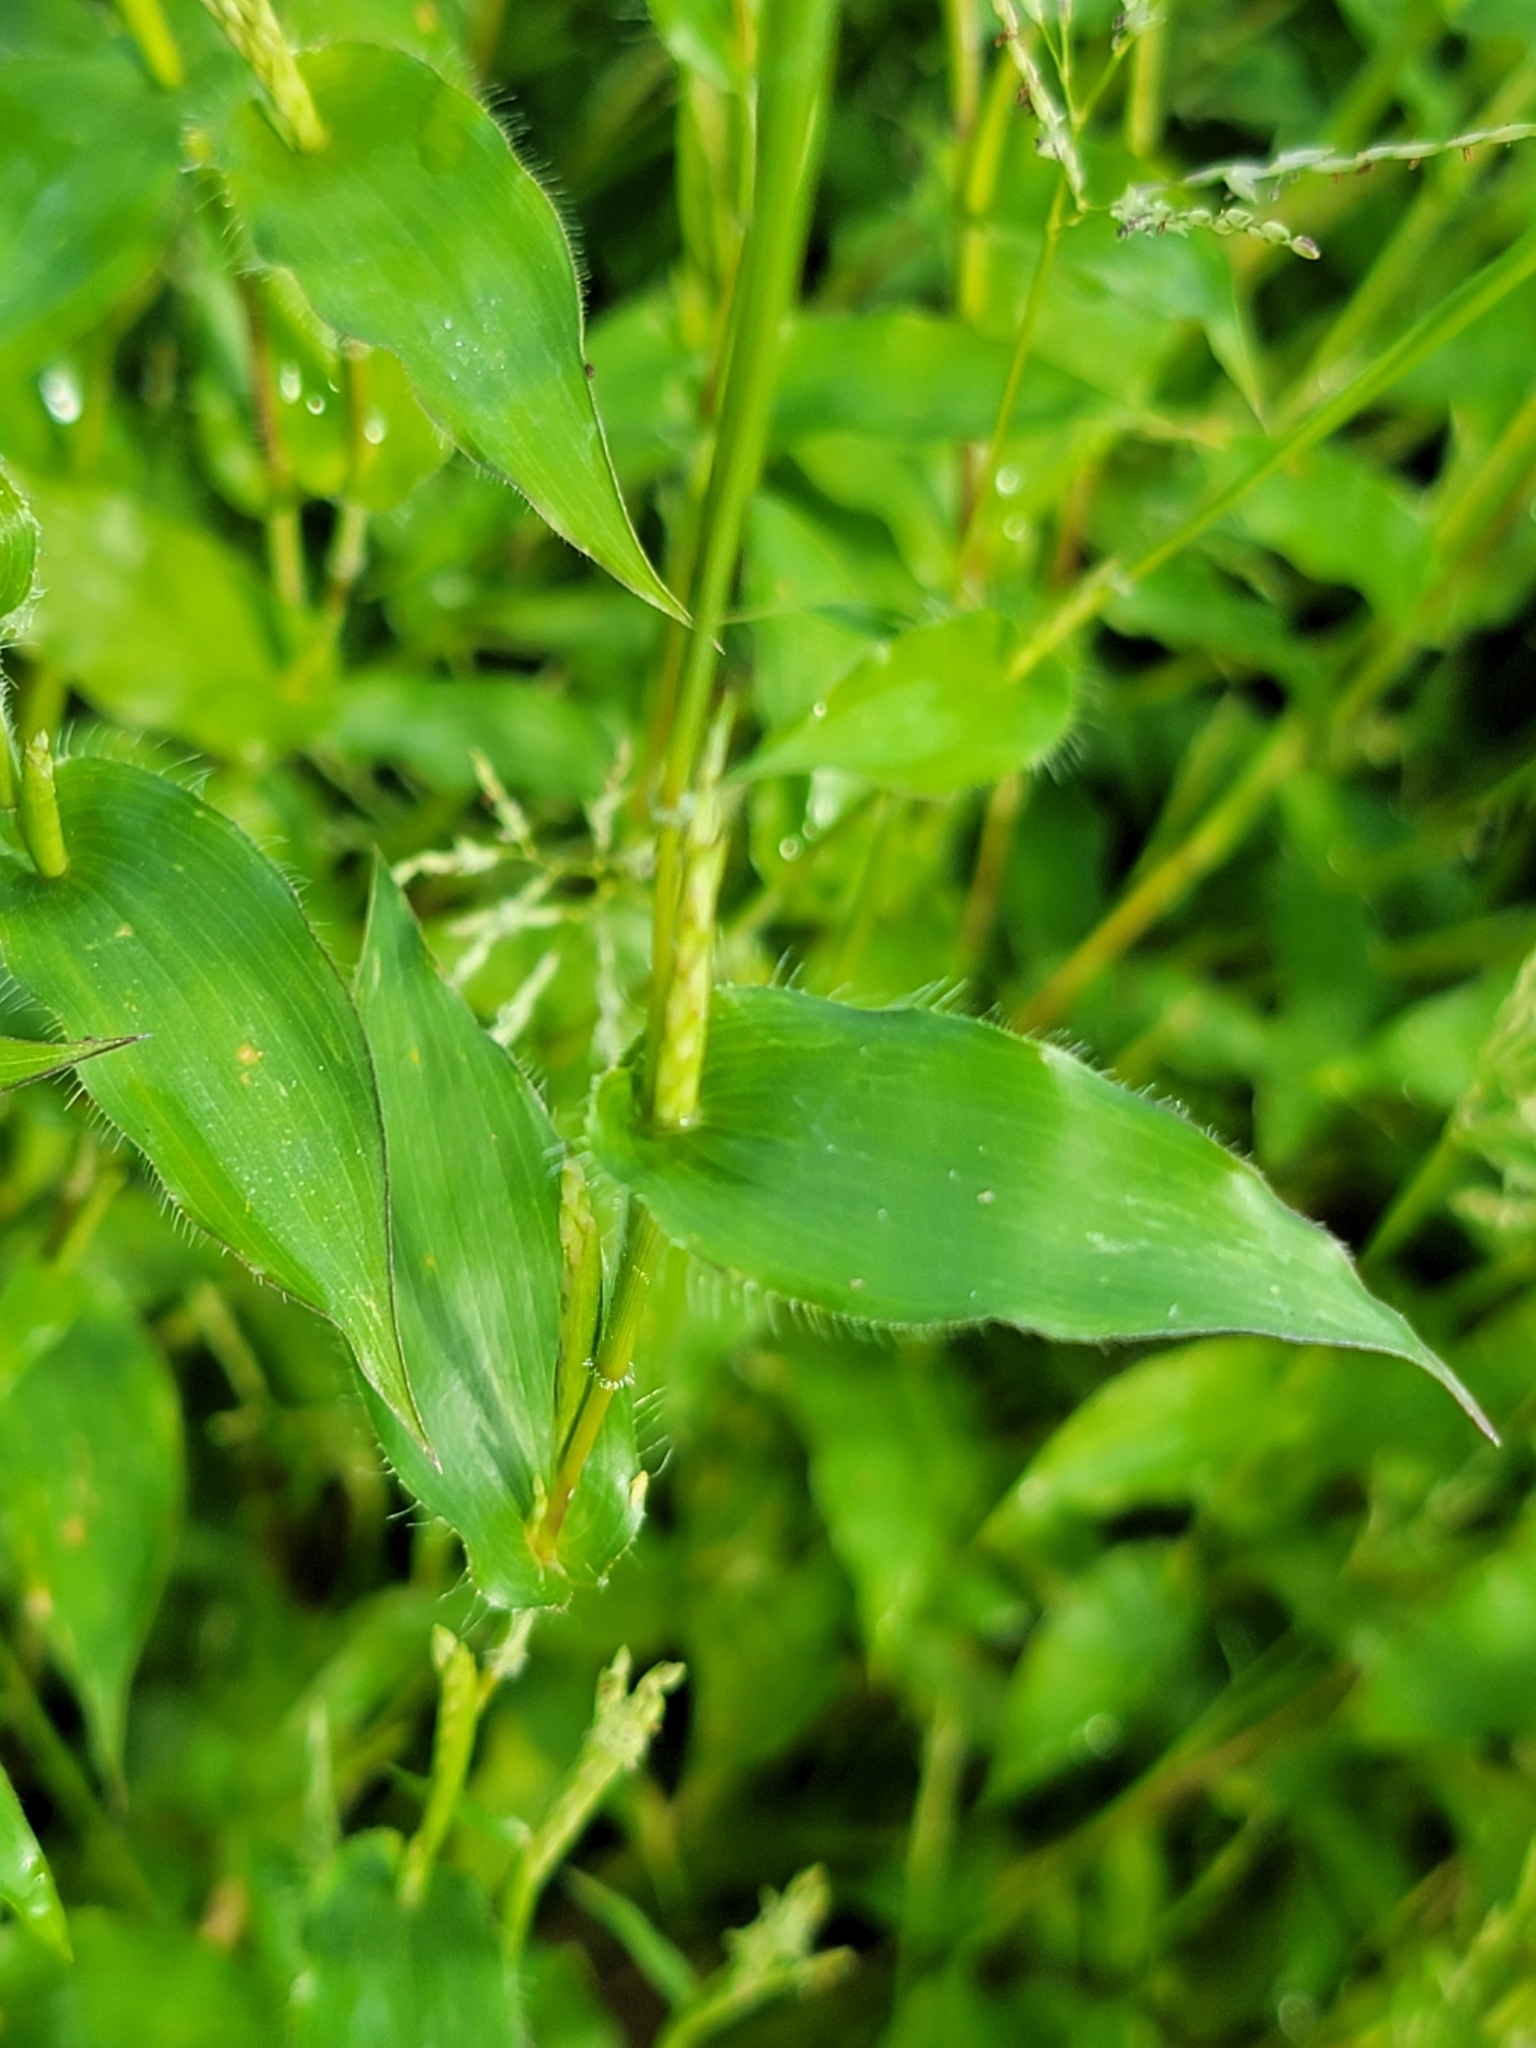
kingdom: Plantae
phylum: Tracheophyta
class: Liliopsida
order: Poales
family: Poaceae
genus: Arthraxon
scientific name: Arthraxon hispidus
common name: Small carpgrass
